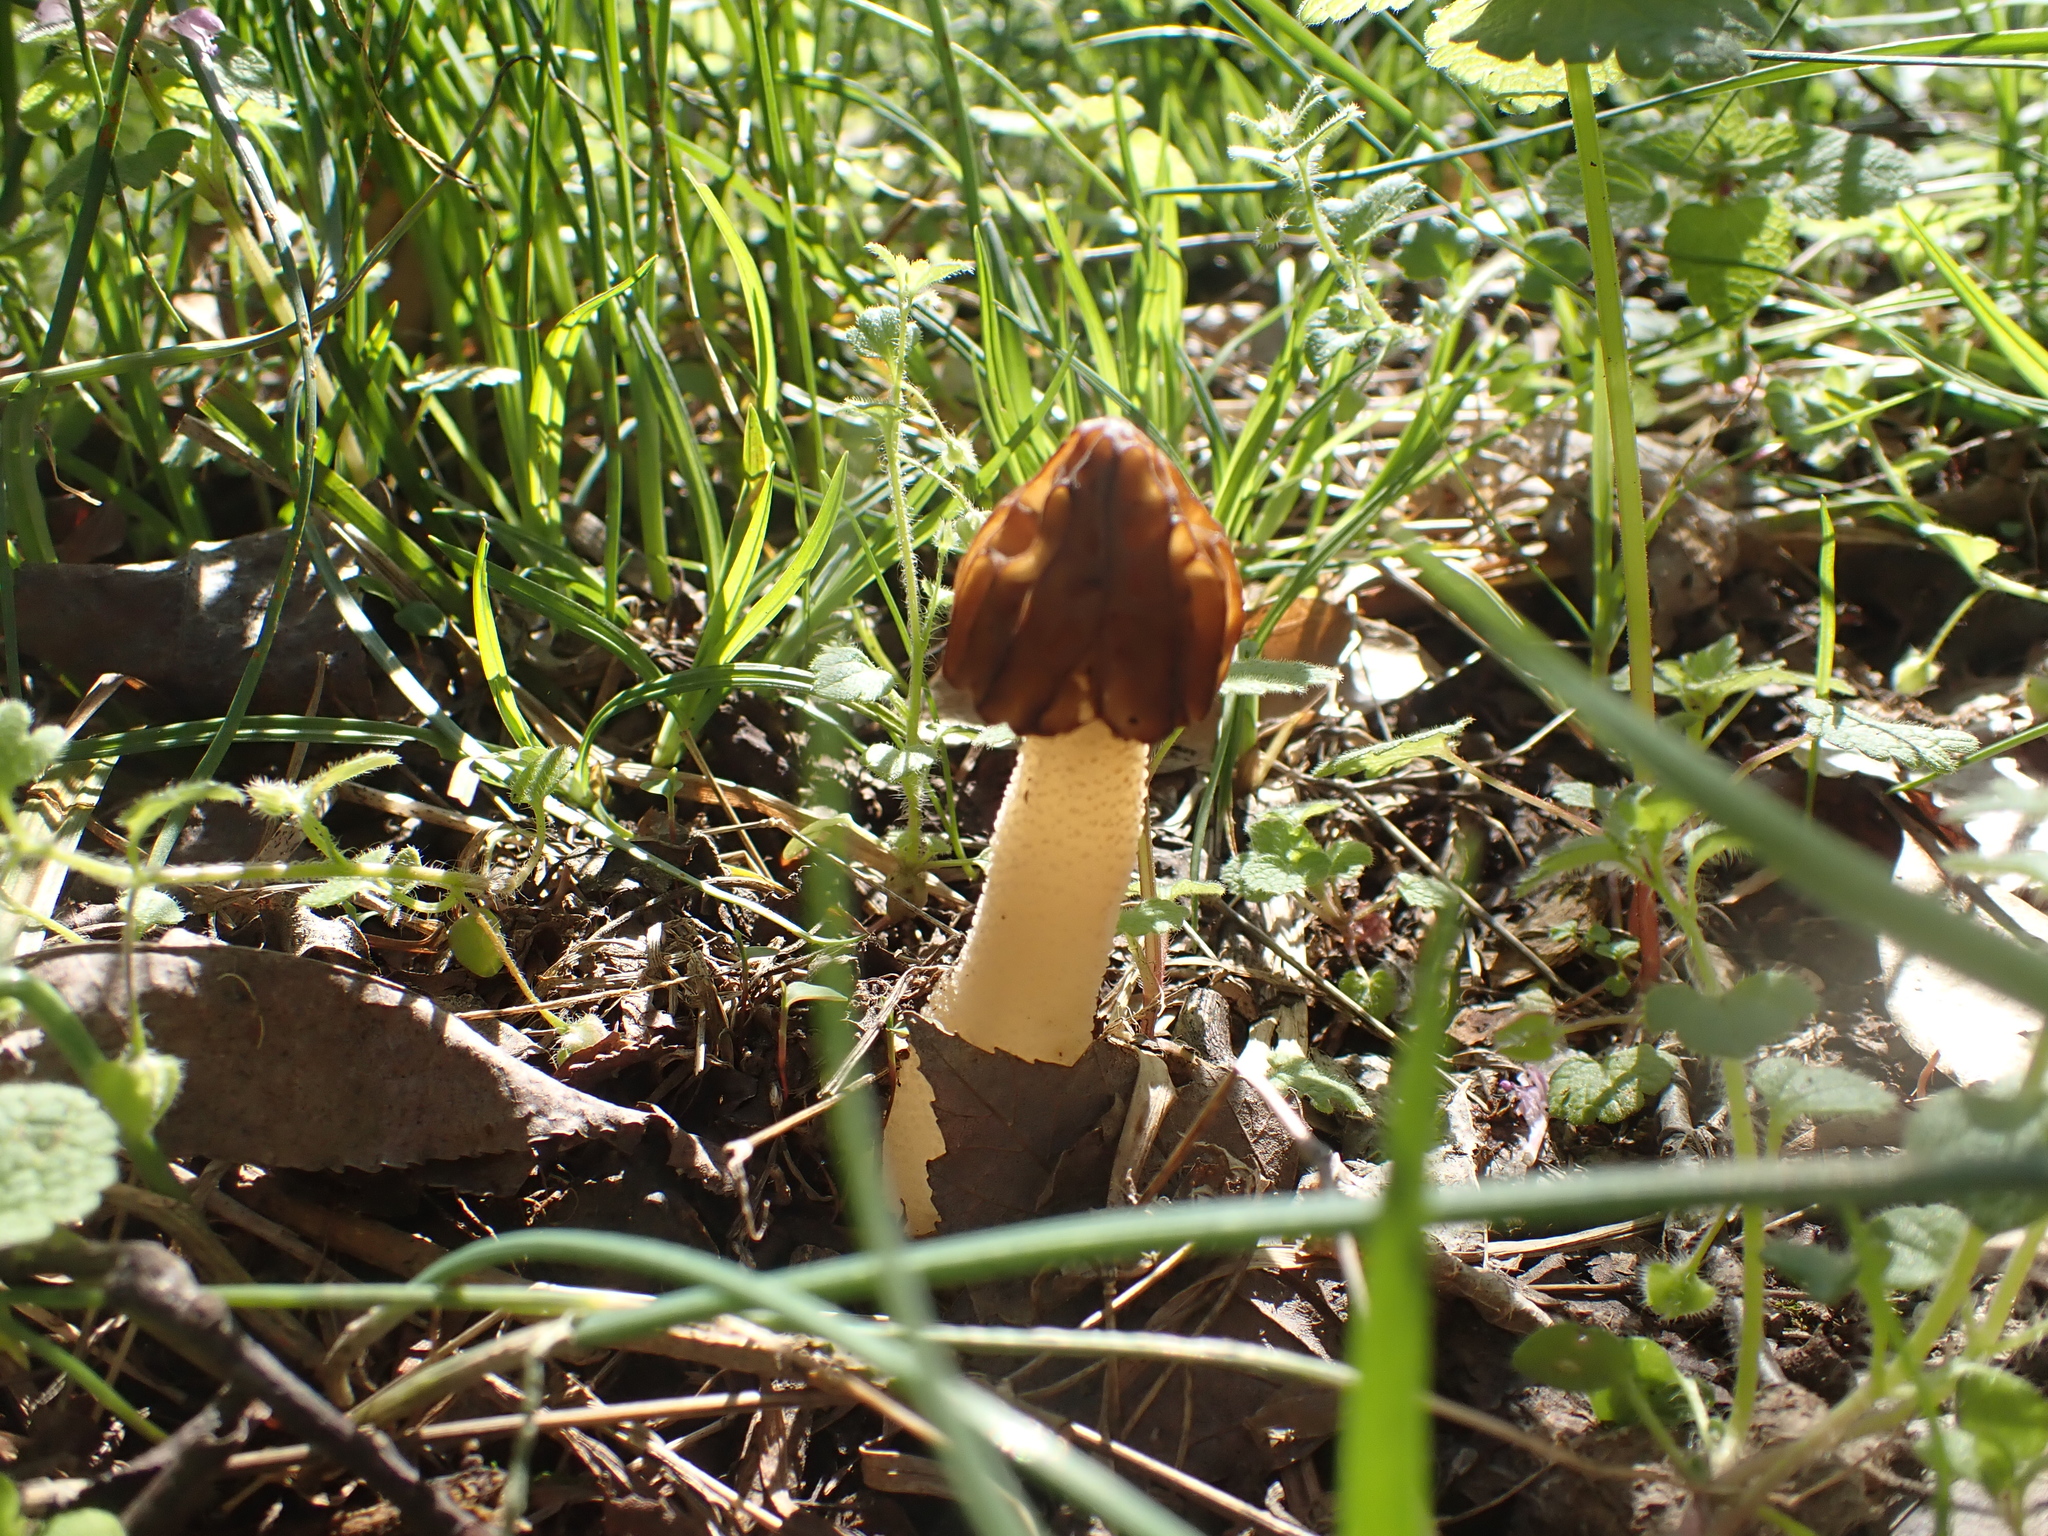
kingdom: Fungi
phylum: Ascomycota
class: Pezizomycetes
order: Pezizales
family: Morchellaceae
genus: Morchella
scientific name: Morchella punctipes
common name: Half-free morel
